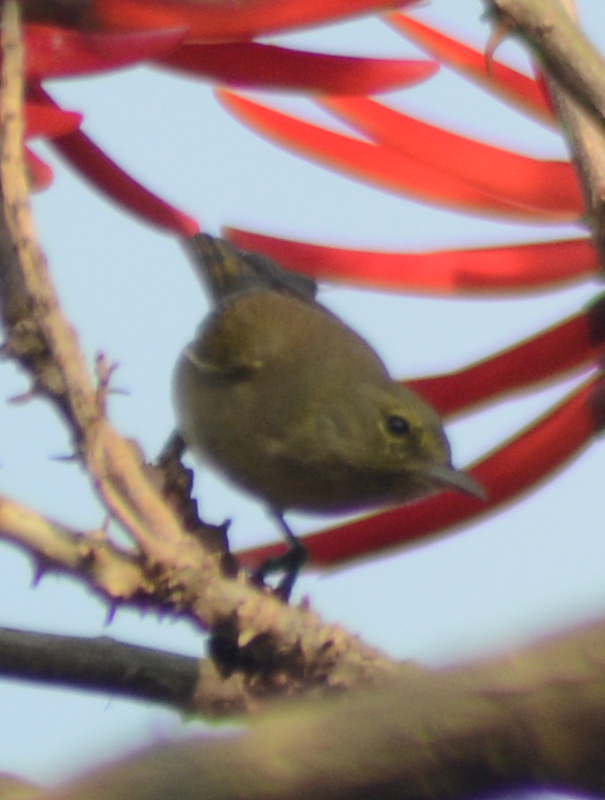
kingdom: Animalia
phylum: Chordata
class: Aves
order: Passeriformes
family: Parulidae
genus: Leiothlypis
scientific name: Leiothlypis celata
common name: Orange-crowned warbler
